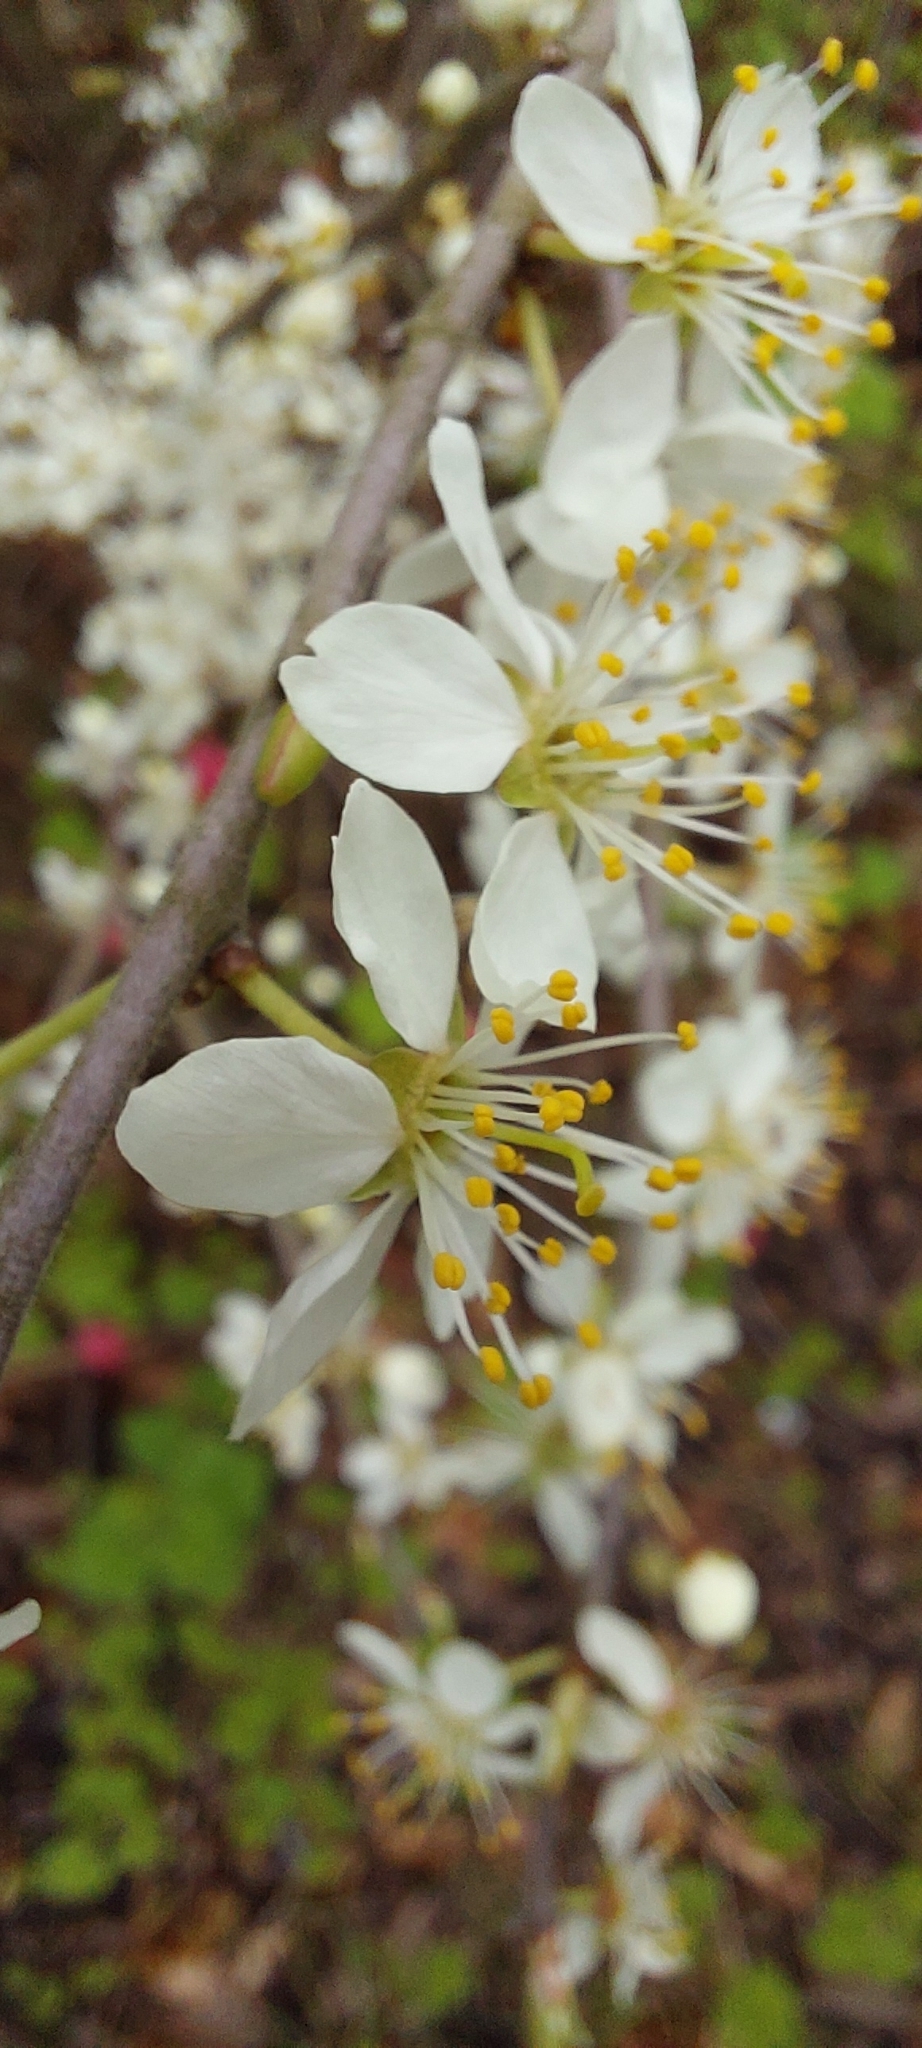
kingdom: Plantae
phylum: Tracheophyta
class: Magnoliopsida
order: Rosales
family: Rosaceae
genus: Prunus
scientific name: Prunus cerasifera
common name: Cherry plum
